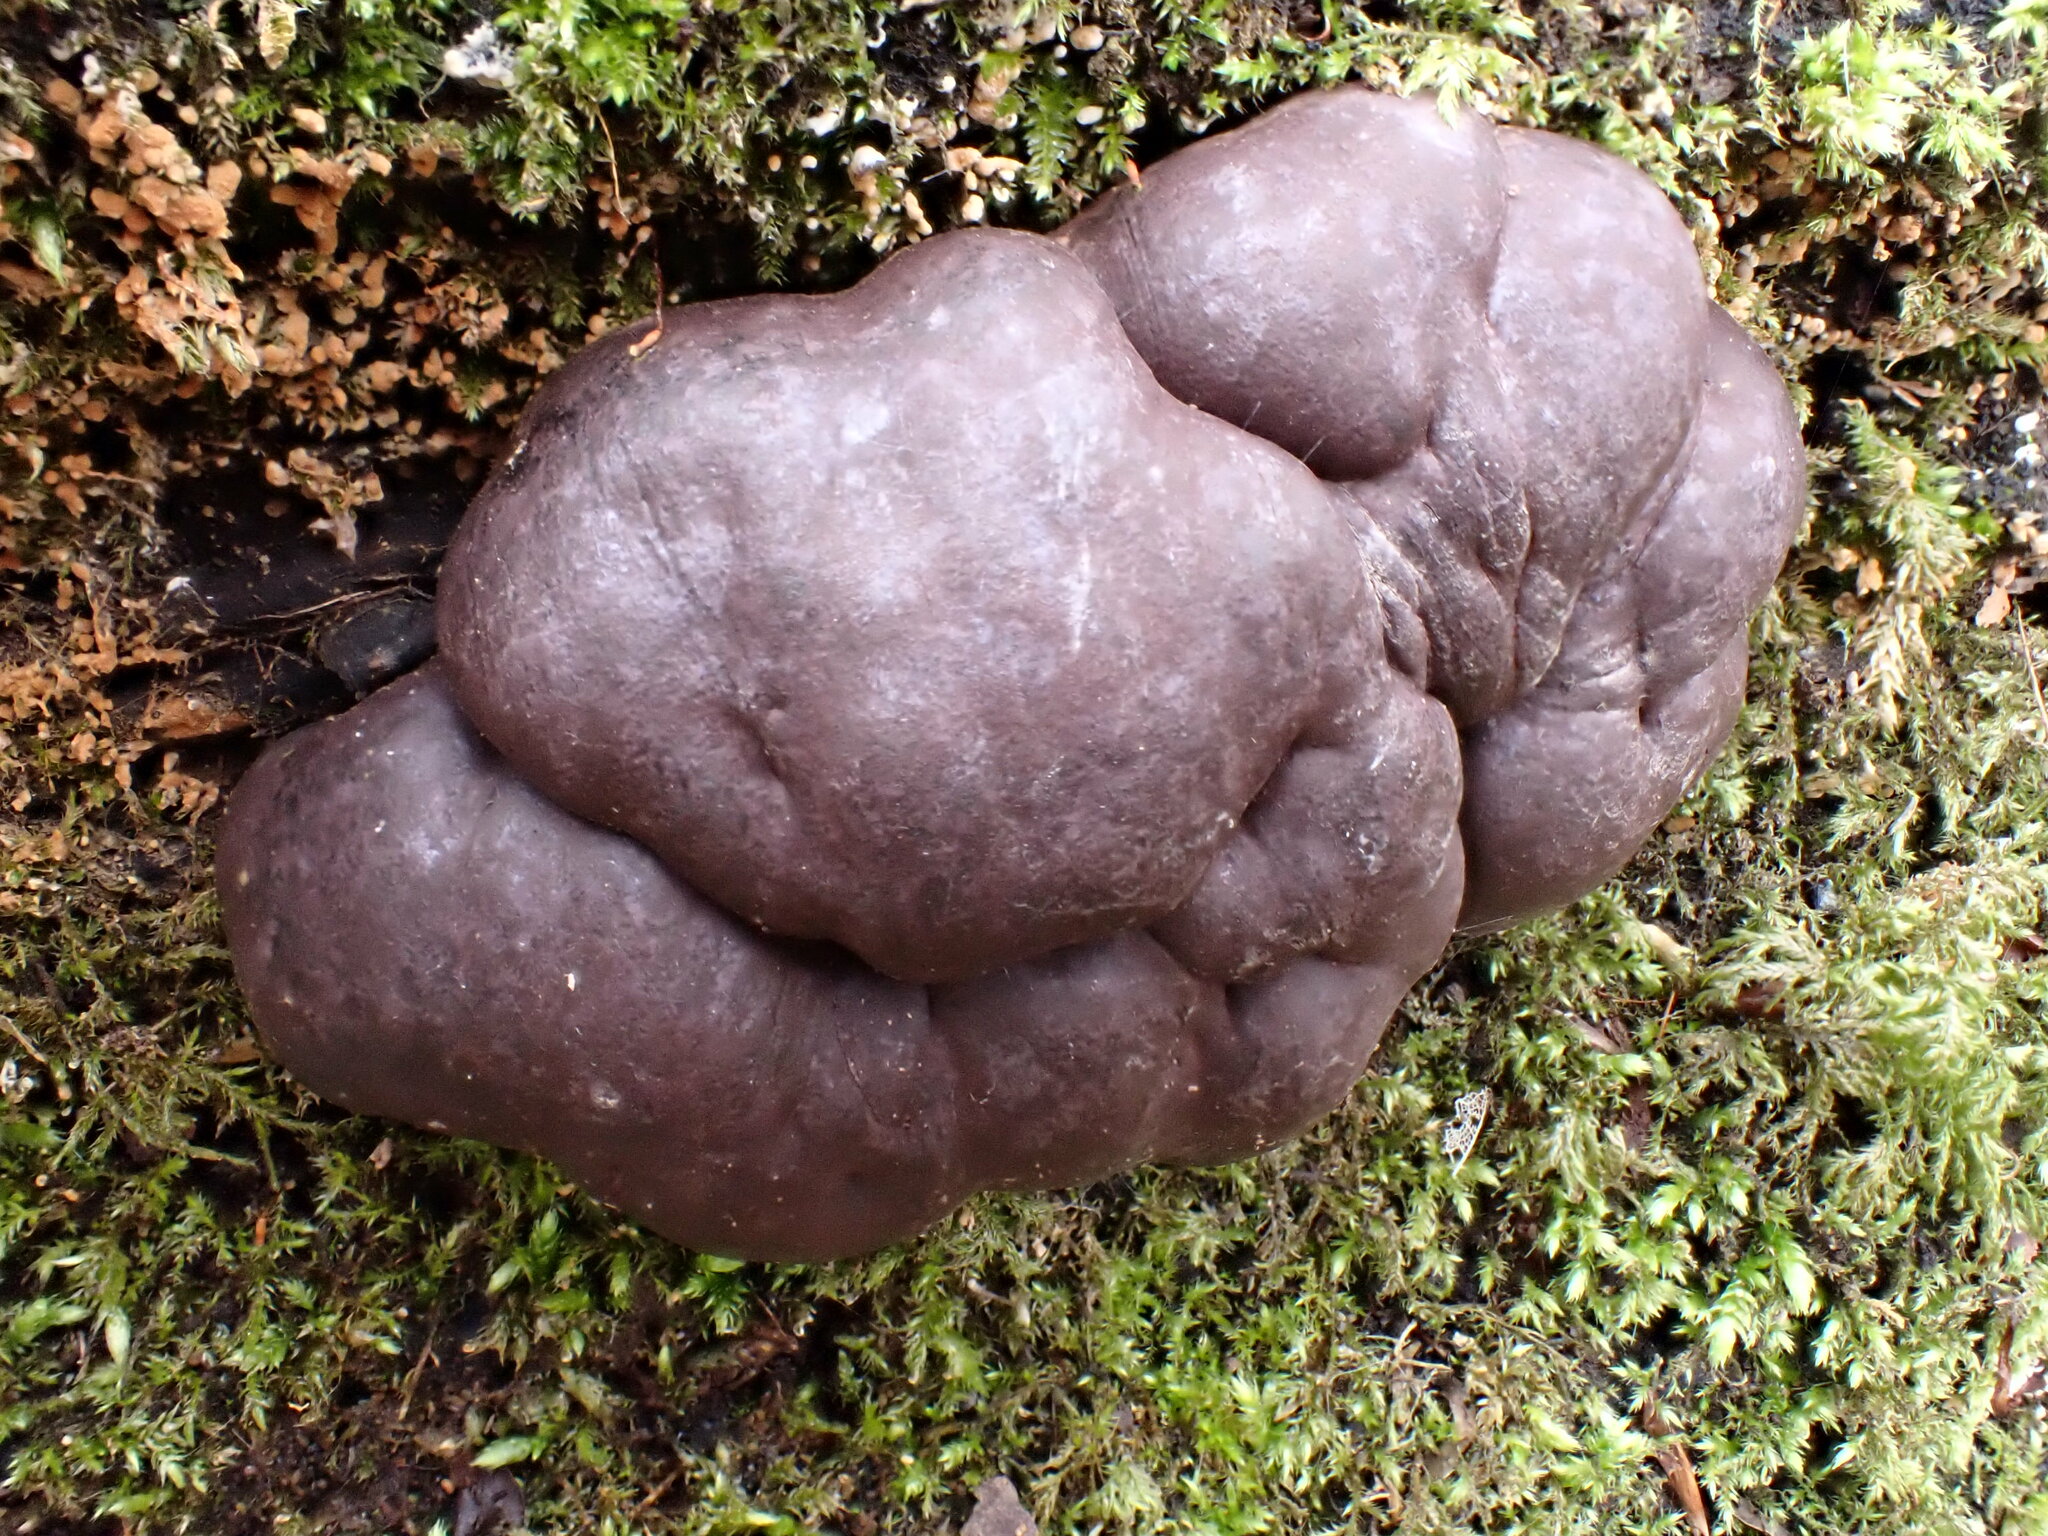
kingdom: Fungi
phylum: Ascomycota
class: Sordariomycetes
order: Xylariales
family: Hypoxylaceae
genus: Daldinia
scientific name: Daldinia concentrica
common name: Cramp balls
